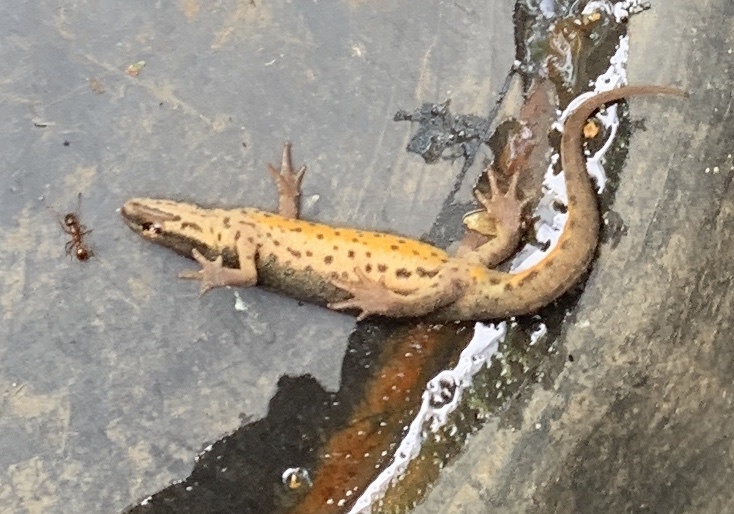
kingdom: Animalia
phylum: Chordata
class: Amphibia
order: Caudata
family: Salamandridae
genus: Lissotriton
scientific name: Lissotriton vulgaris
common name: Smooth newt
